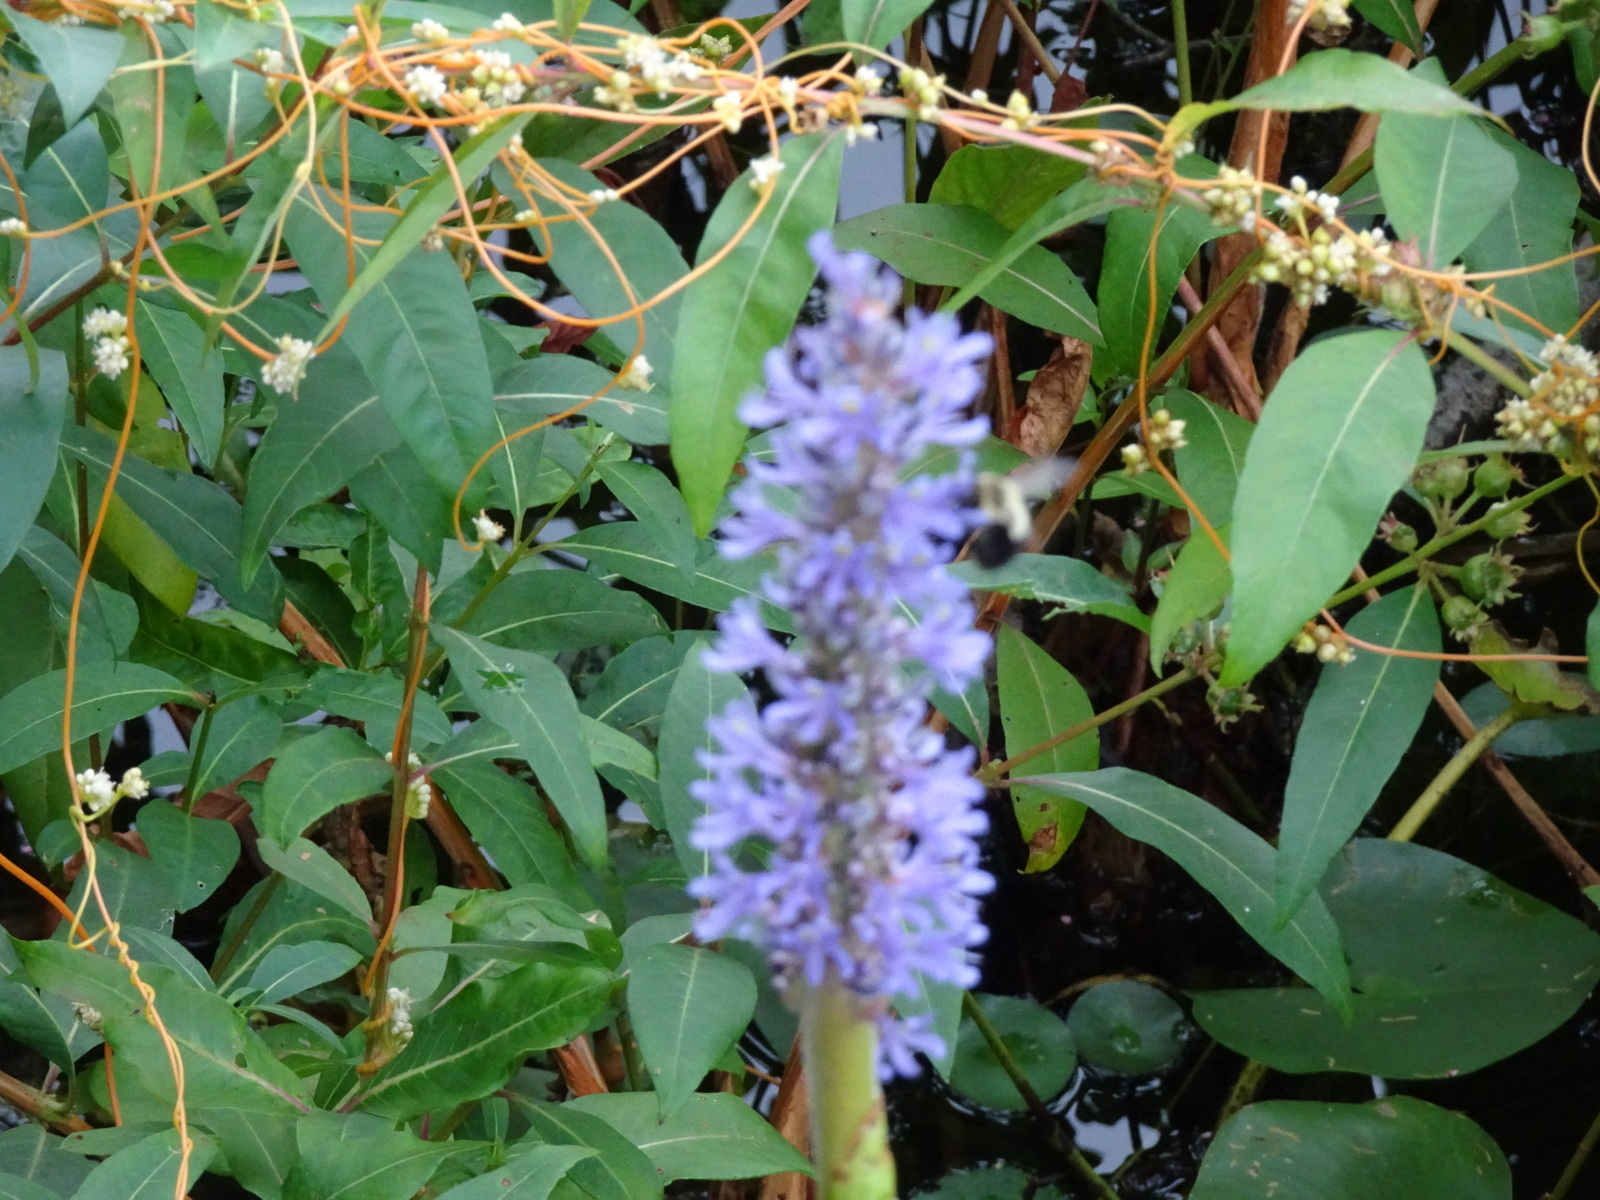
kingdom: Plantae
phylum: Tracheophyta
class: Liliopsida
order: Commelinales
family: Pontederiaceae
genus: Pontederia
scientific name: Pontederia cordata
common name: Pickerelweed
